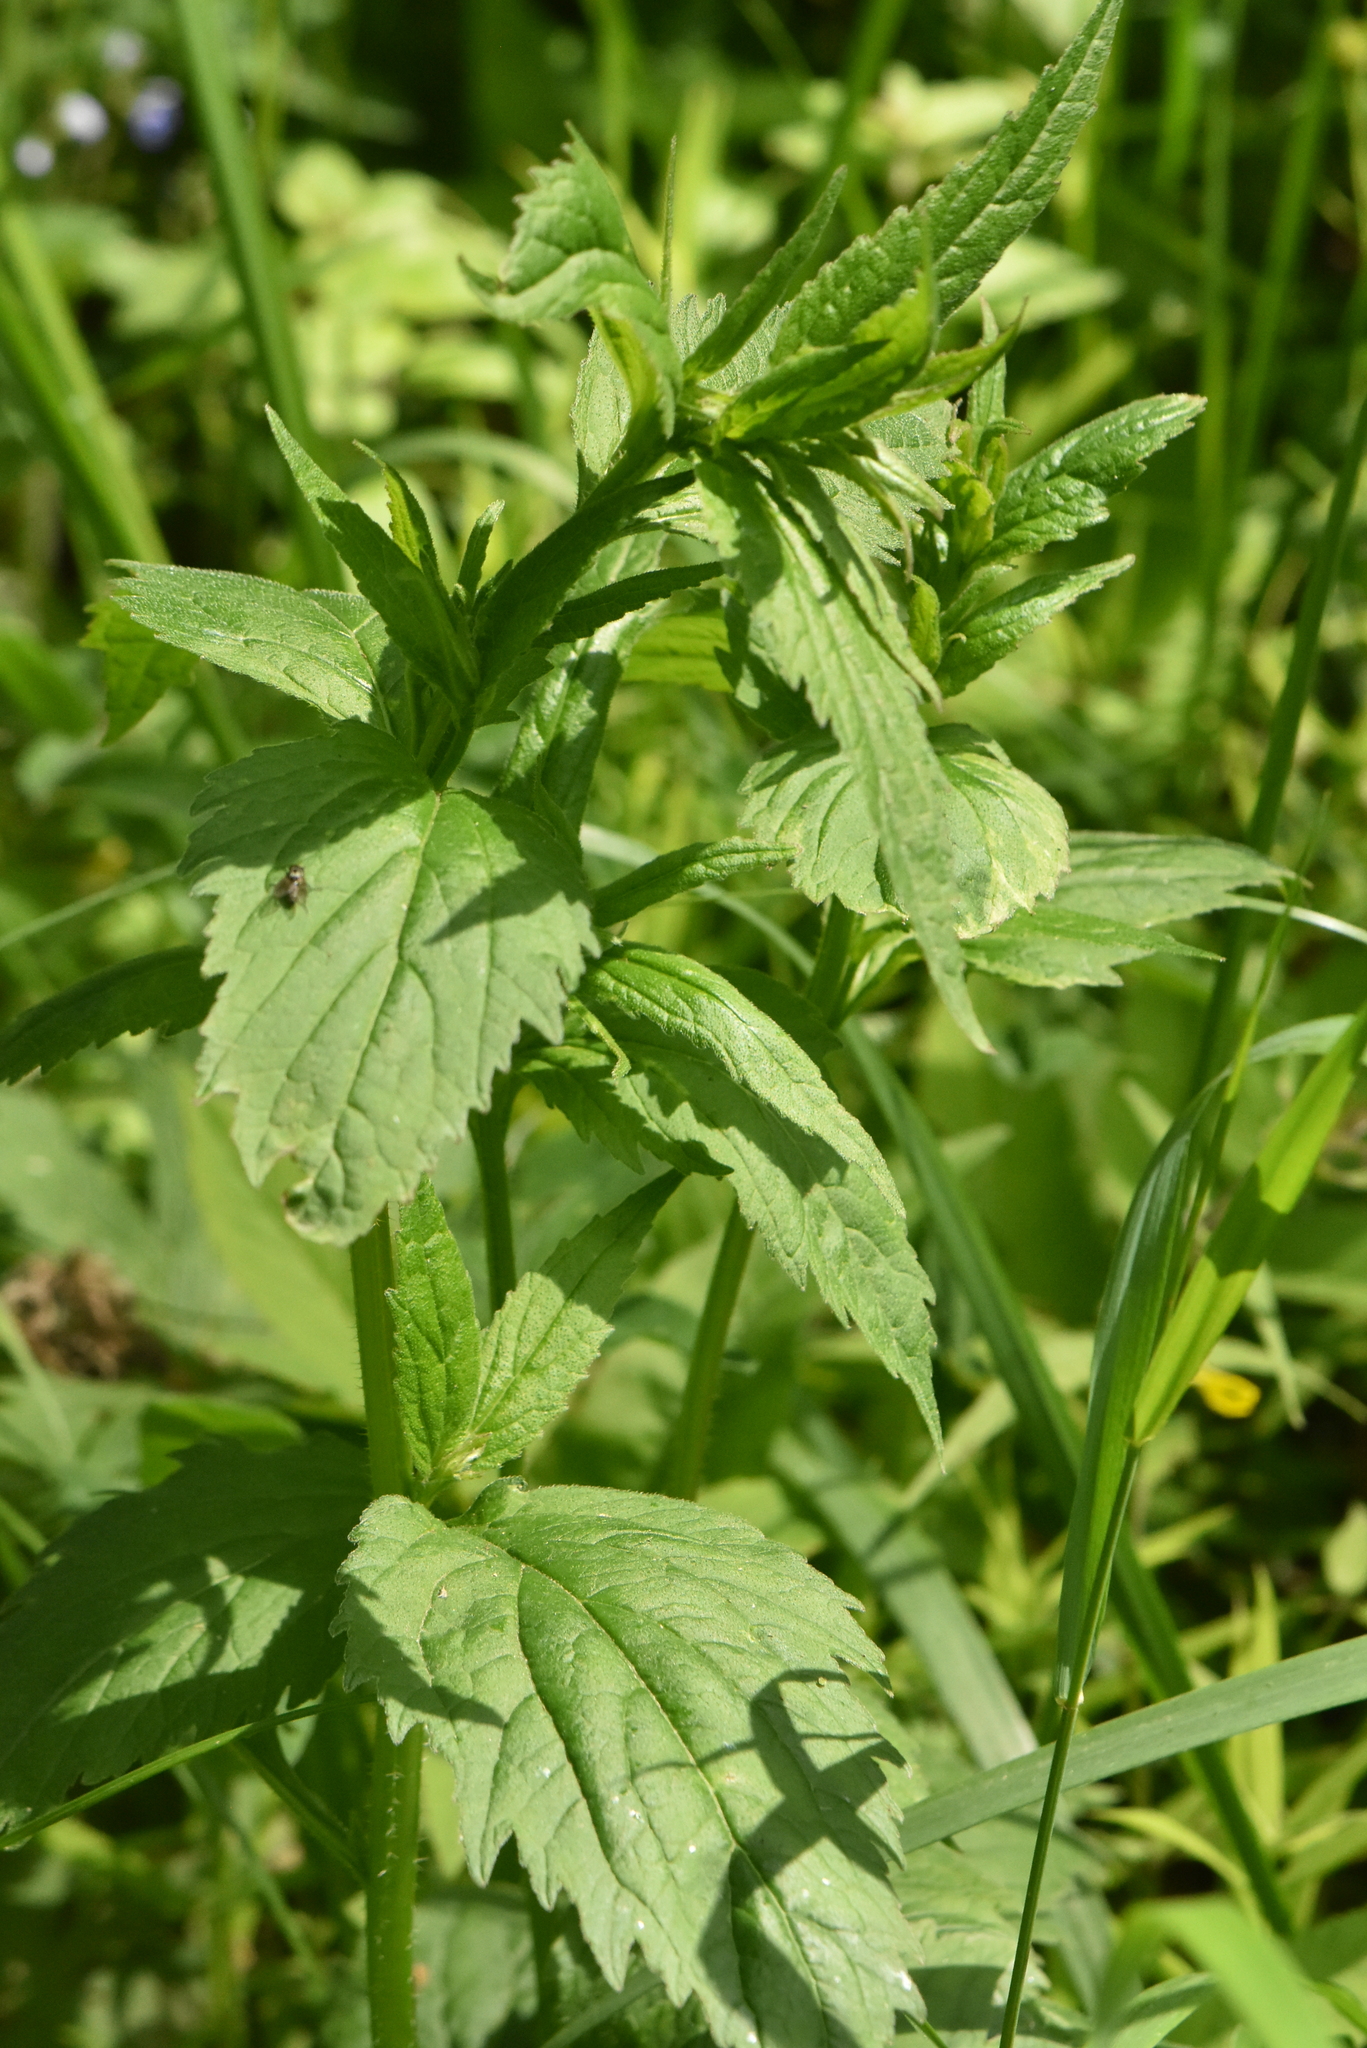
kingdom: Plantae
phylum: Tracheophyta
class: Magnoliopsida
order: Asterales
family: Campanulaceae
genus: Campanula
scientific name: Campanula trachelium
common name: Nettle-leaved bellflower
